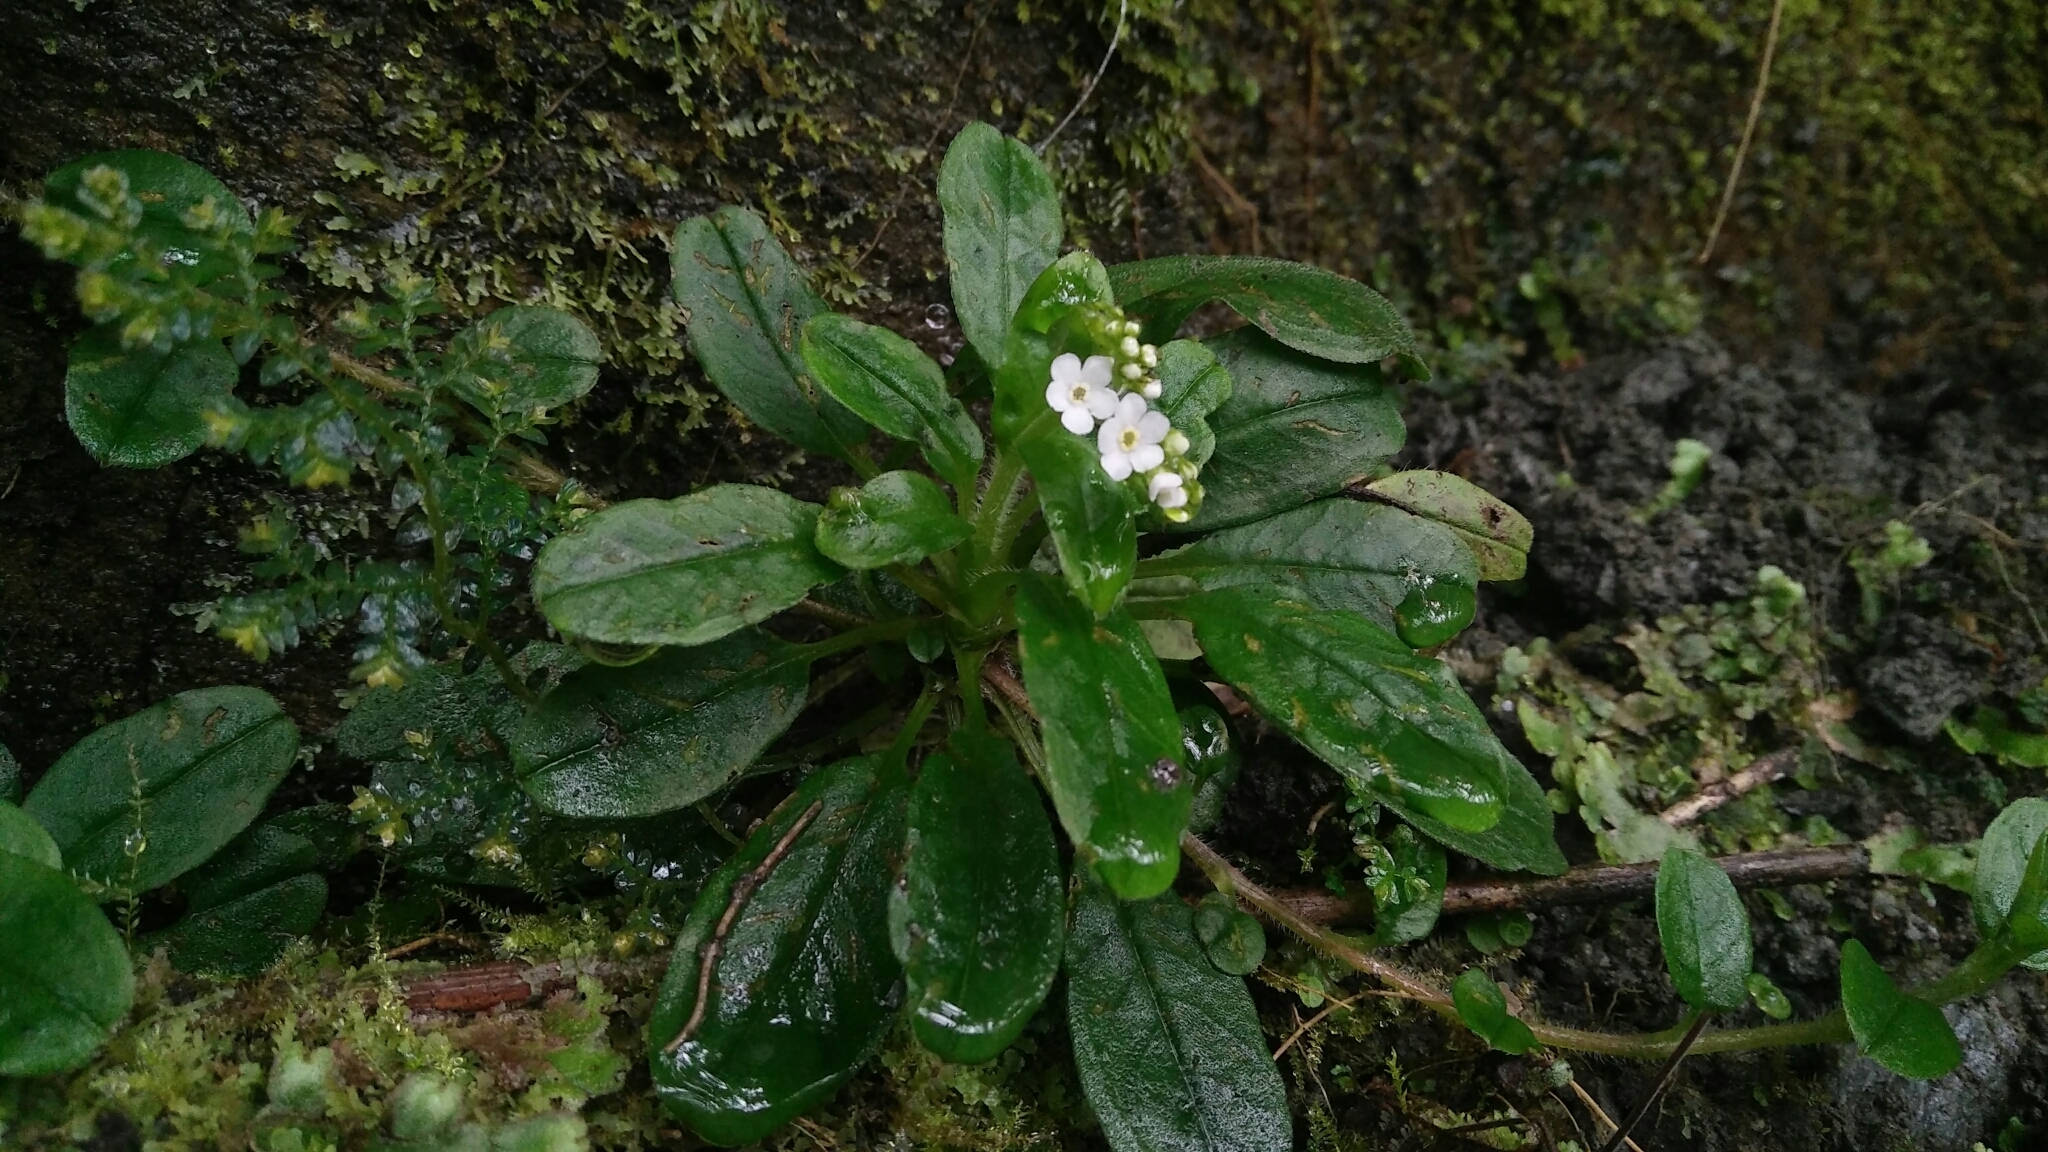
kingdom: Plantae
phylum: Tracheophyta
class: Magnoliopsida
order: Boraginales
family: Boraginaceae
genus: Trigonotis
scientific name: Trigonotis formosana
